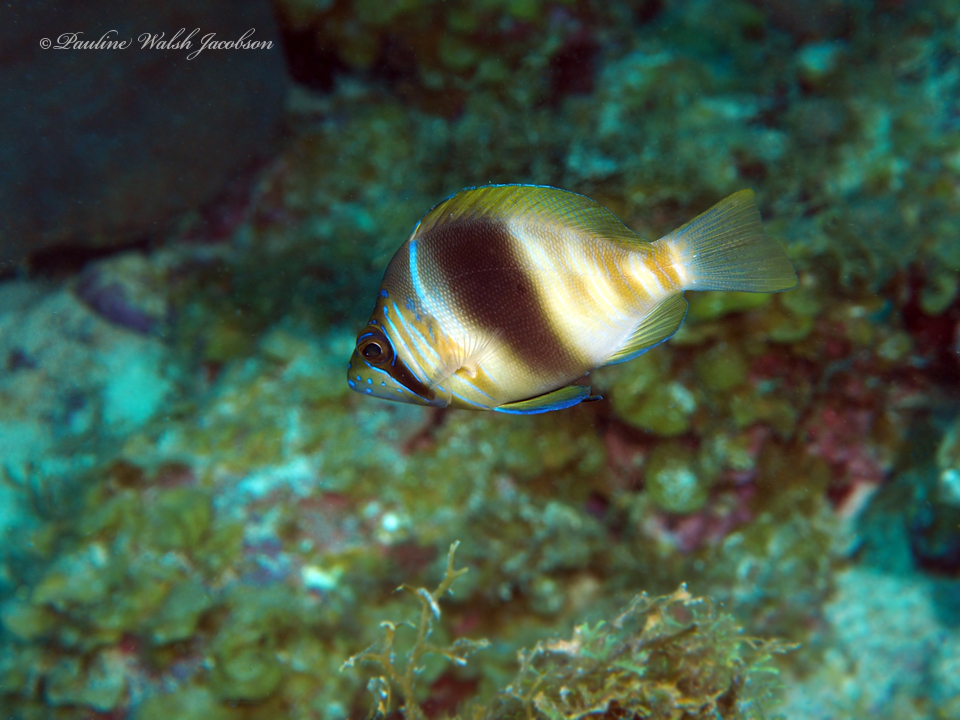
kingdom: Animalia
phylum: Chordata
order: Perciformes
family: Serranidae
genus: Hypoplectrus
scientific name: Hypoplectrus puella
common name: Barred hamlet
